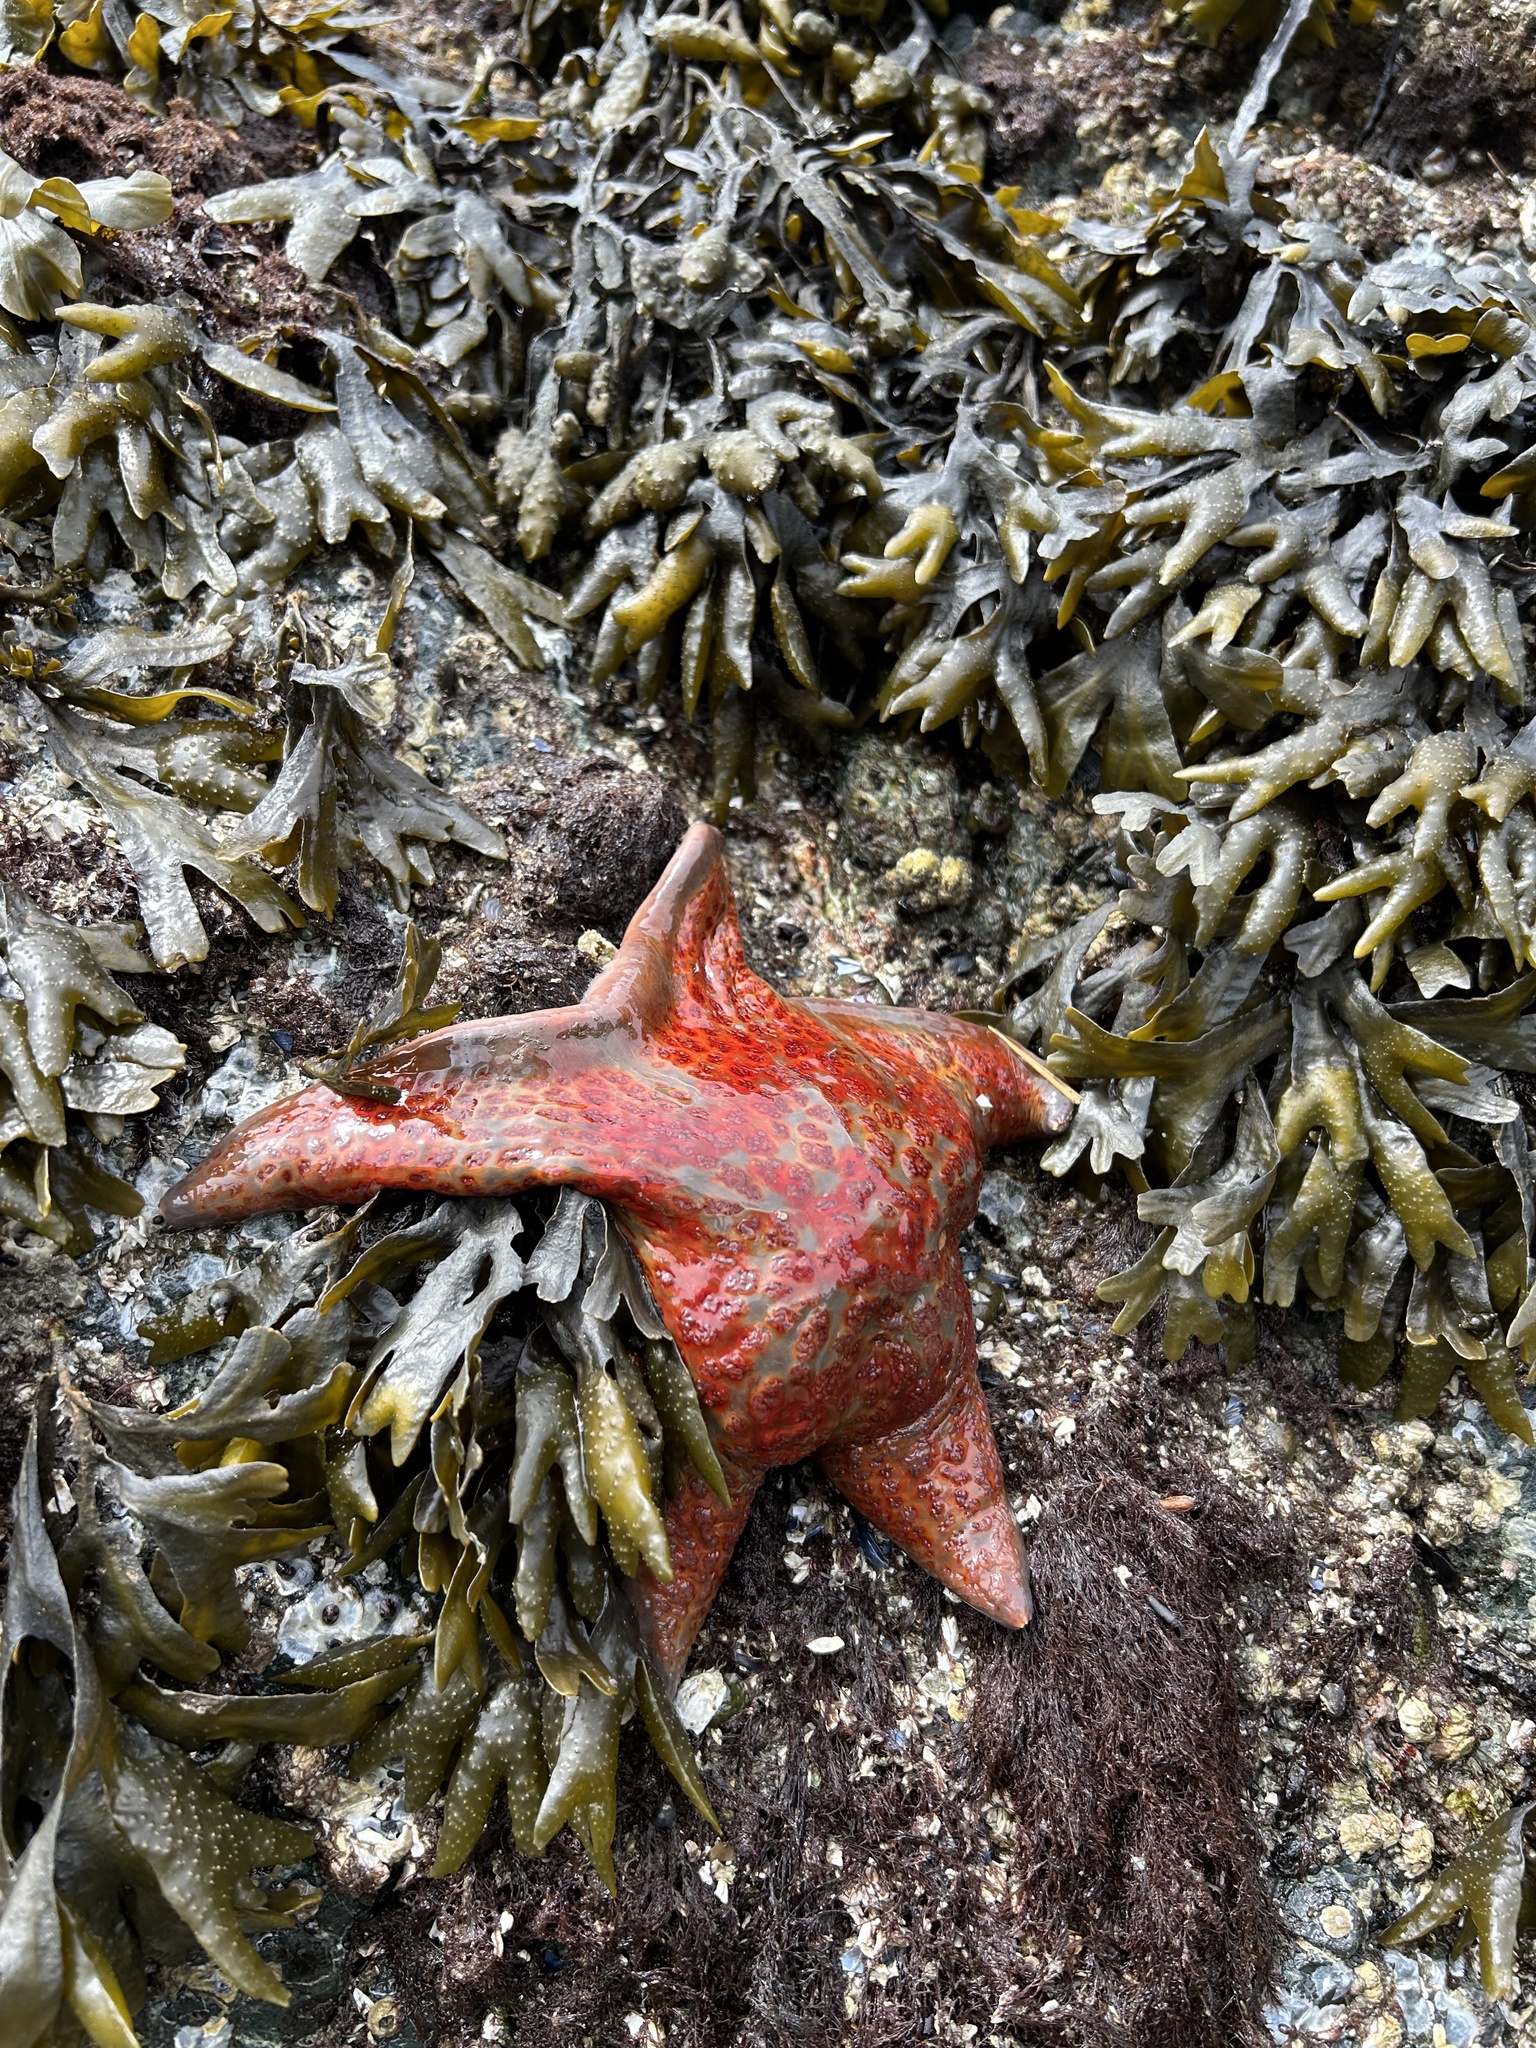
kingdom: Animalia
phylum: Echinodermata
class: Asteroidea
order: Valvatida
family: Asteropseidae
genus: Dermasterias
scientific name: Dermasterias imbricata
